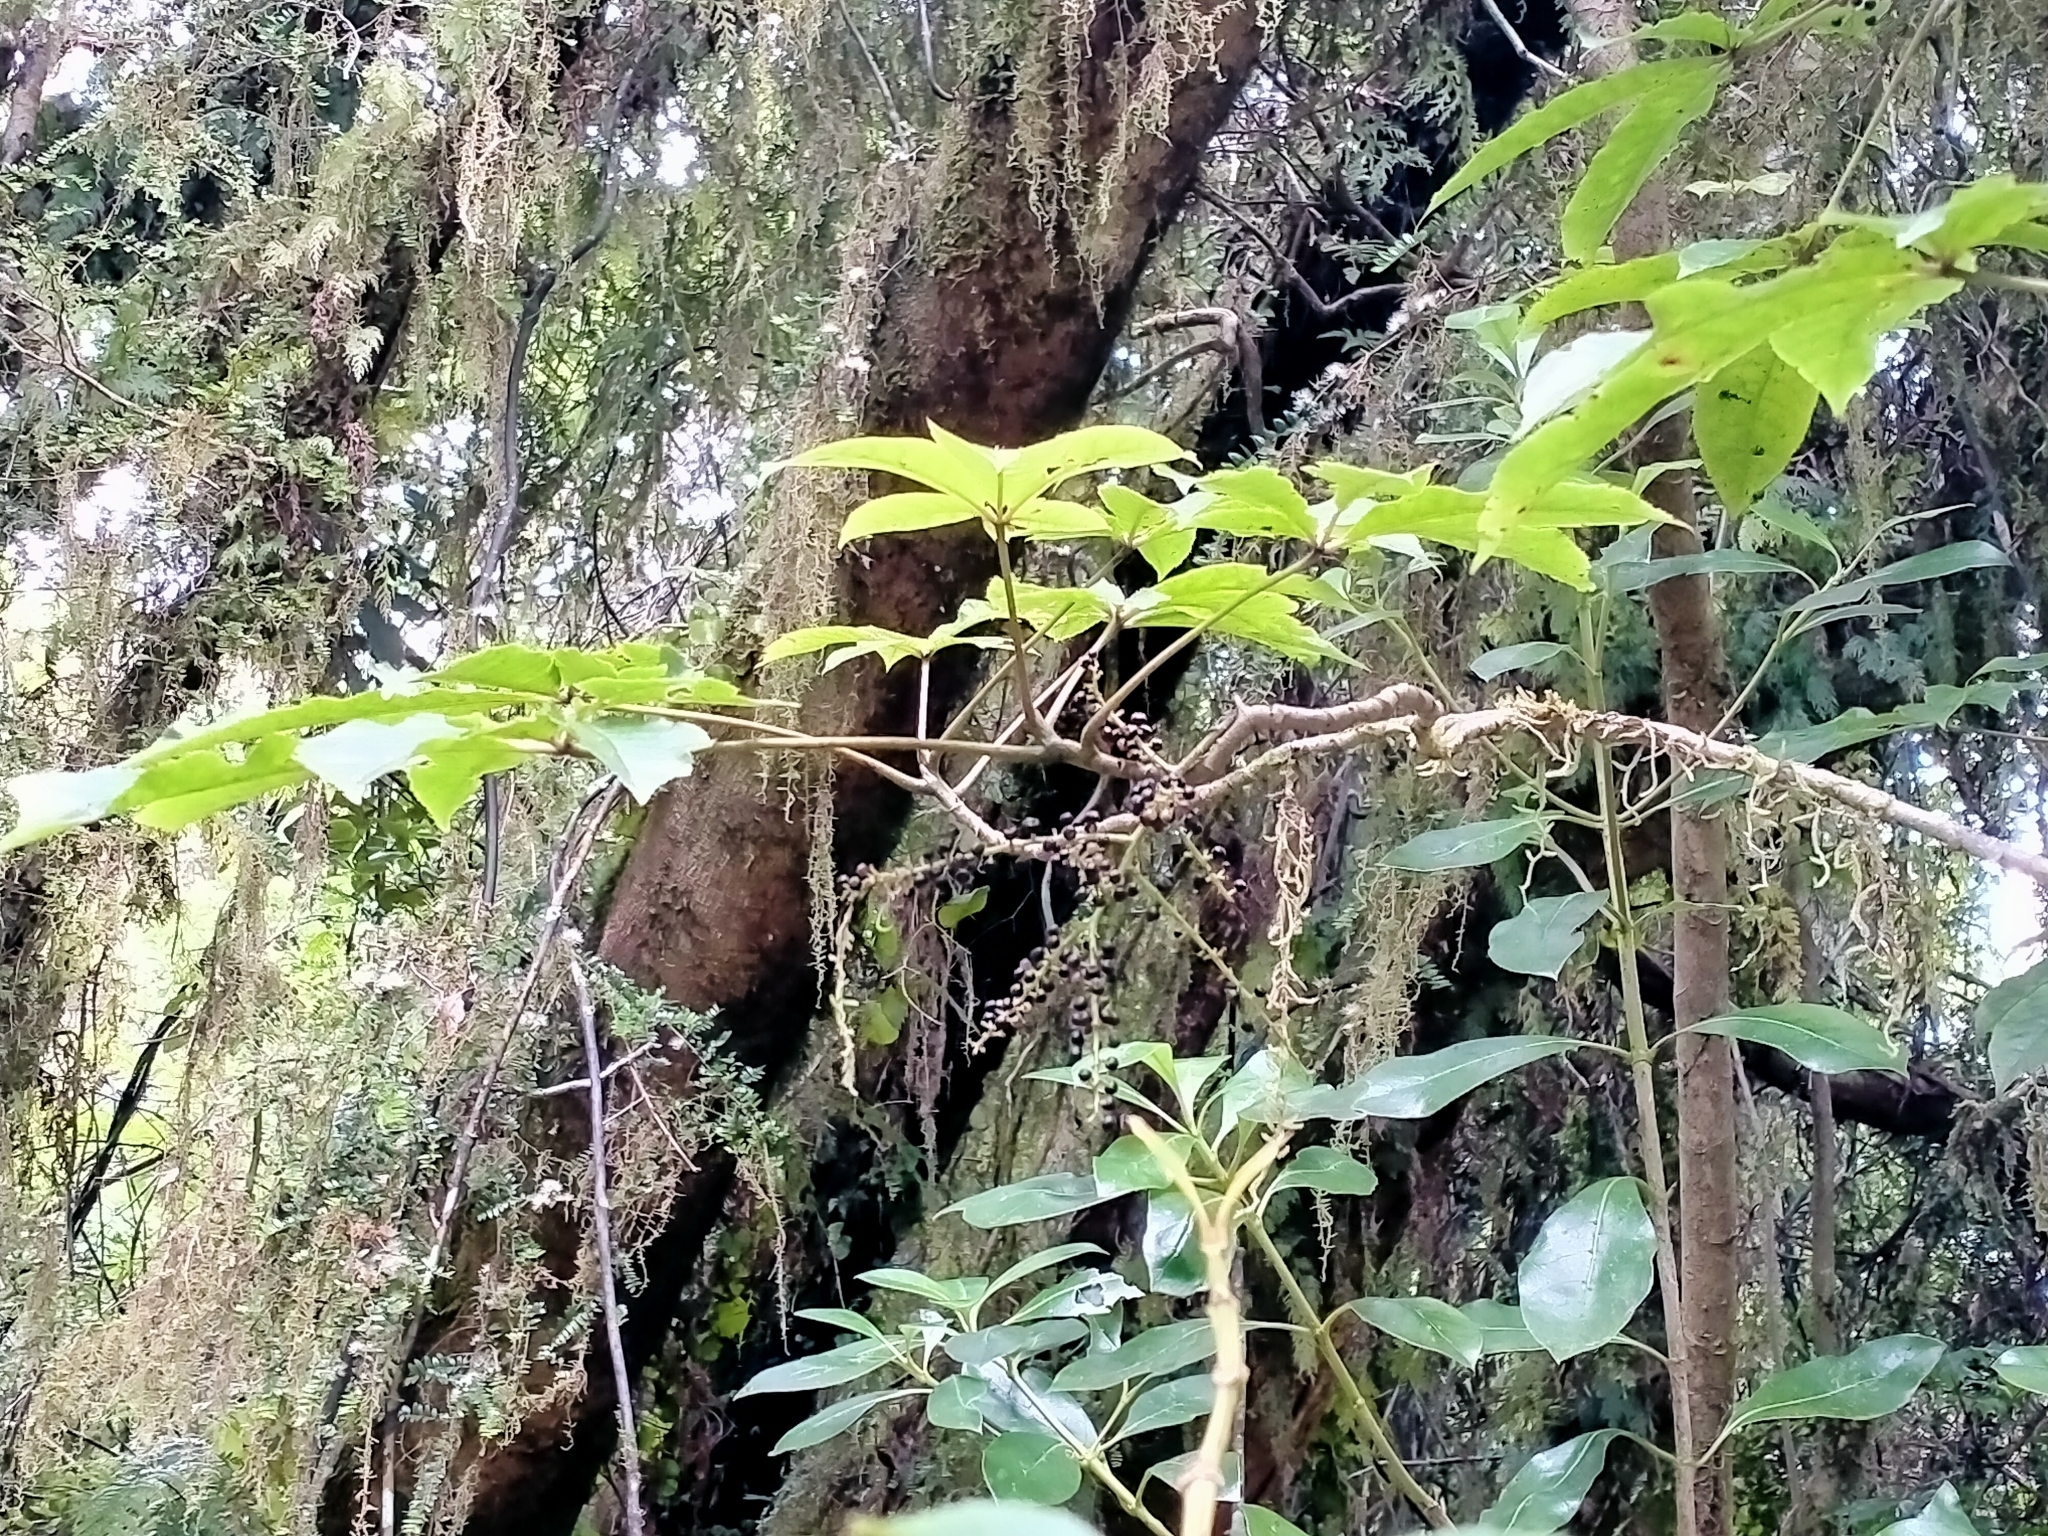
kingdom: Plantae
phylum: Tracheophyta
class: Magnoliopsida
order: Apiales
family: Araliaceae
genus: Schefflera
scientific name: Schefflera digitata
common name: Pate
